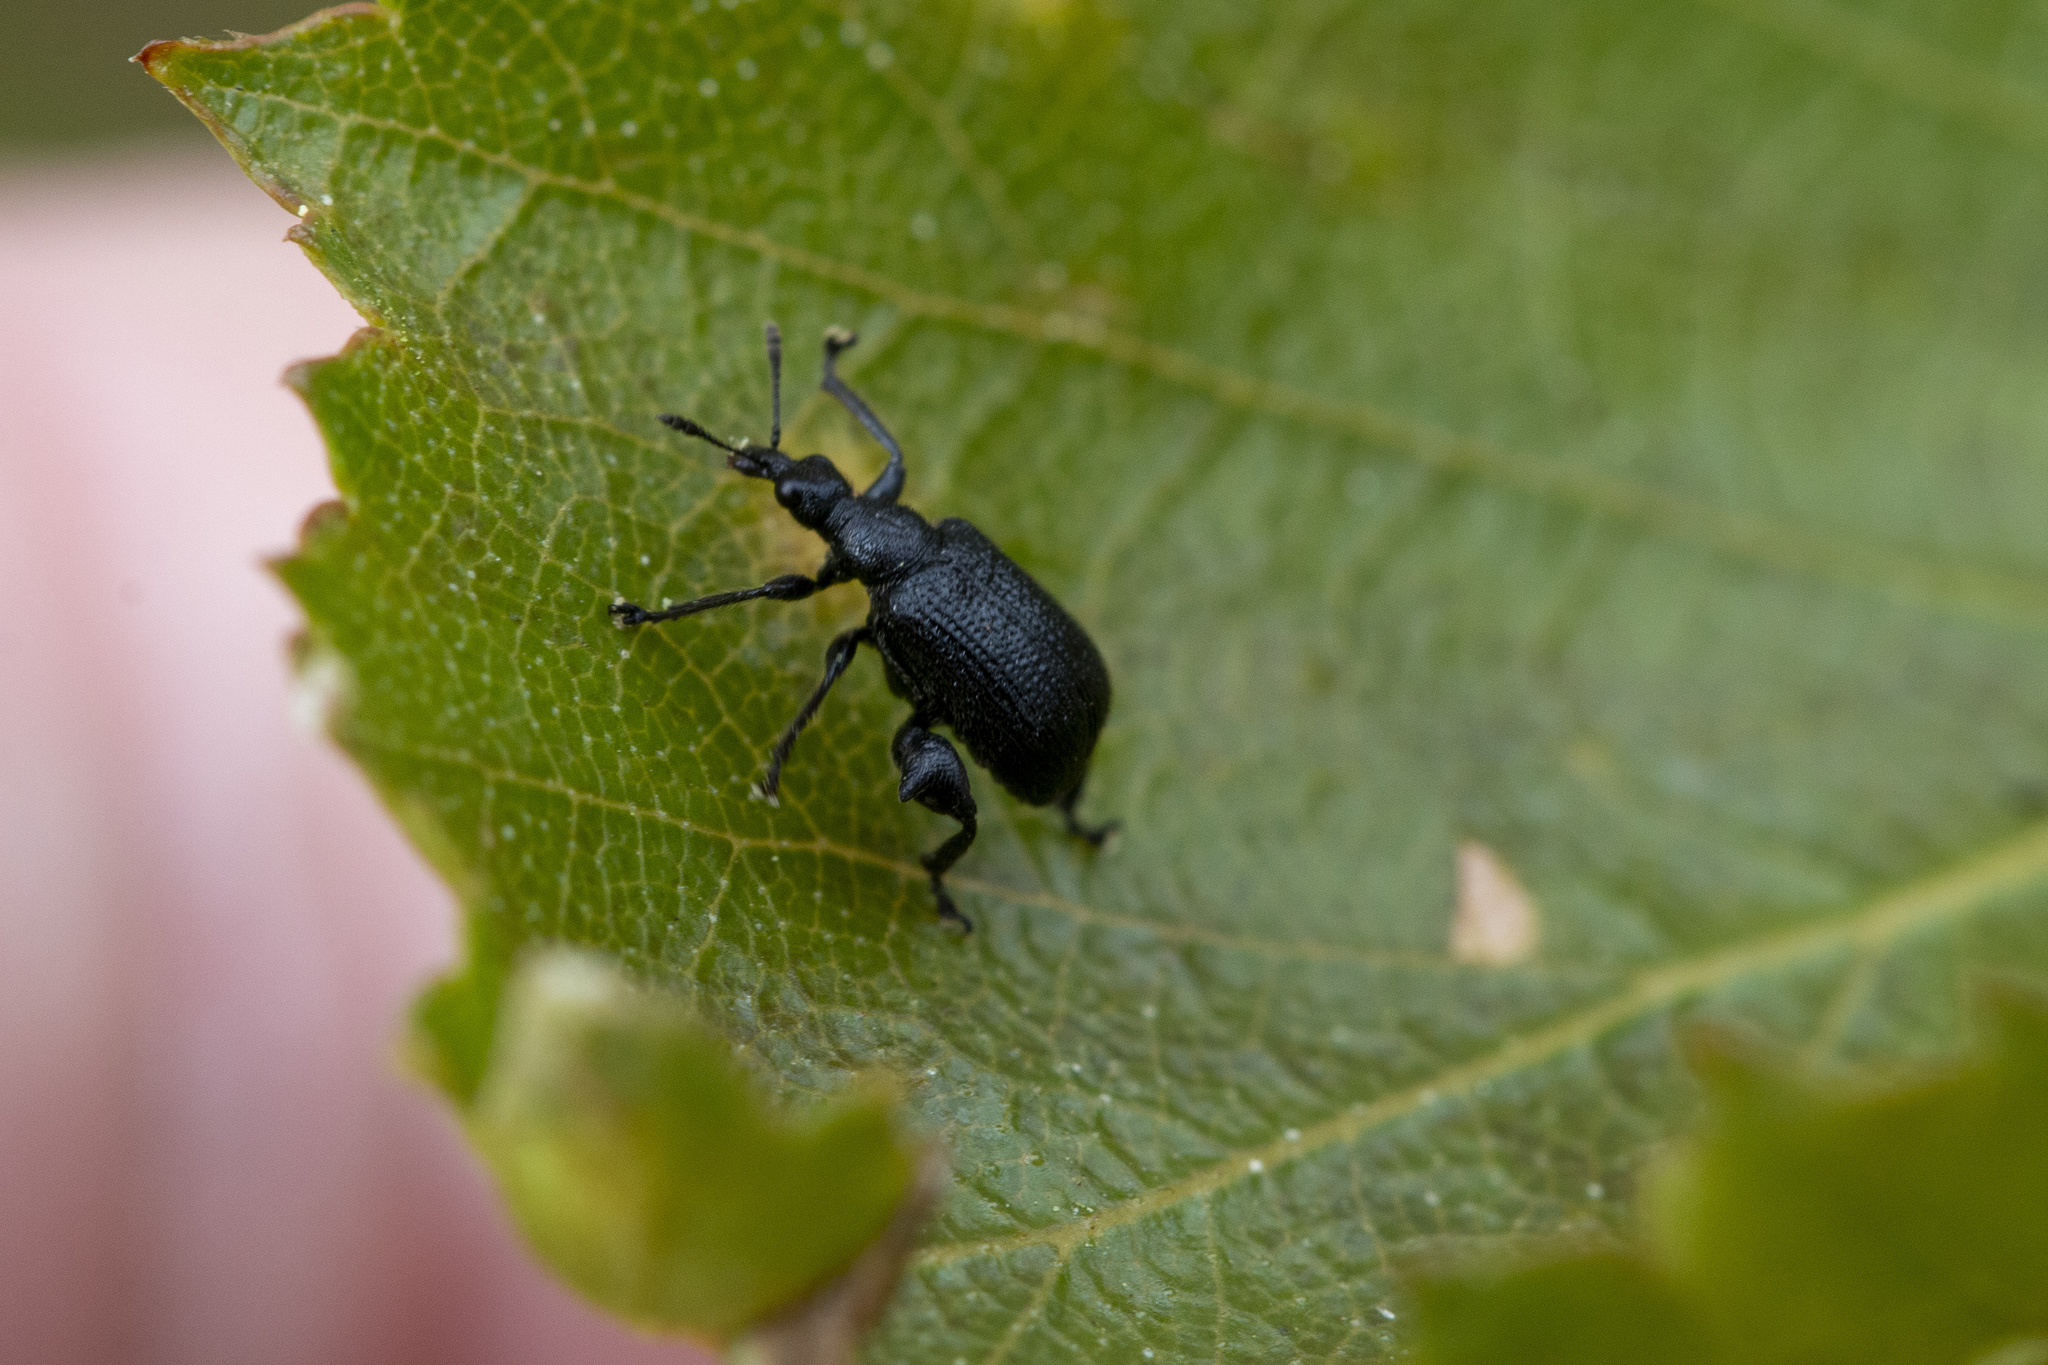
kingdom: Animalia
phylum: Arthropoda
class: Insecta
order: Coleoptera
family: Attelabidae
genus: Deporaus
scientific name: Deporaus betulae
